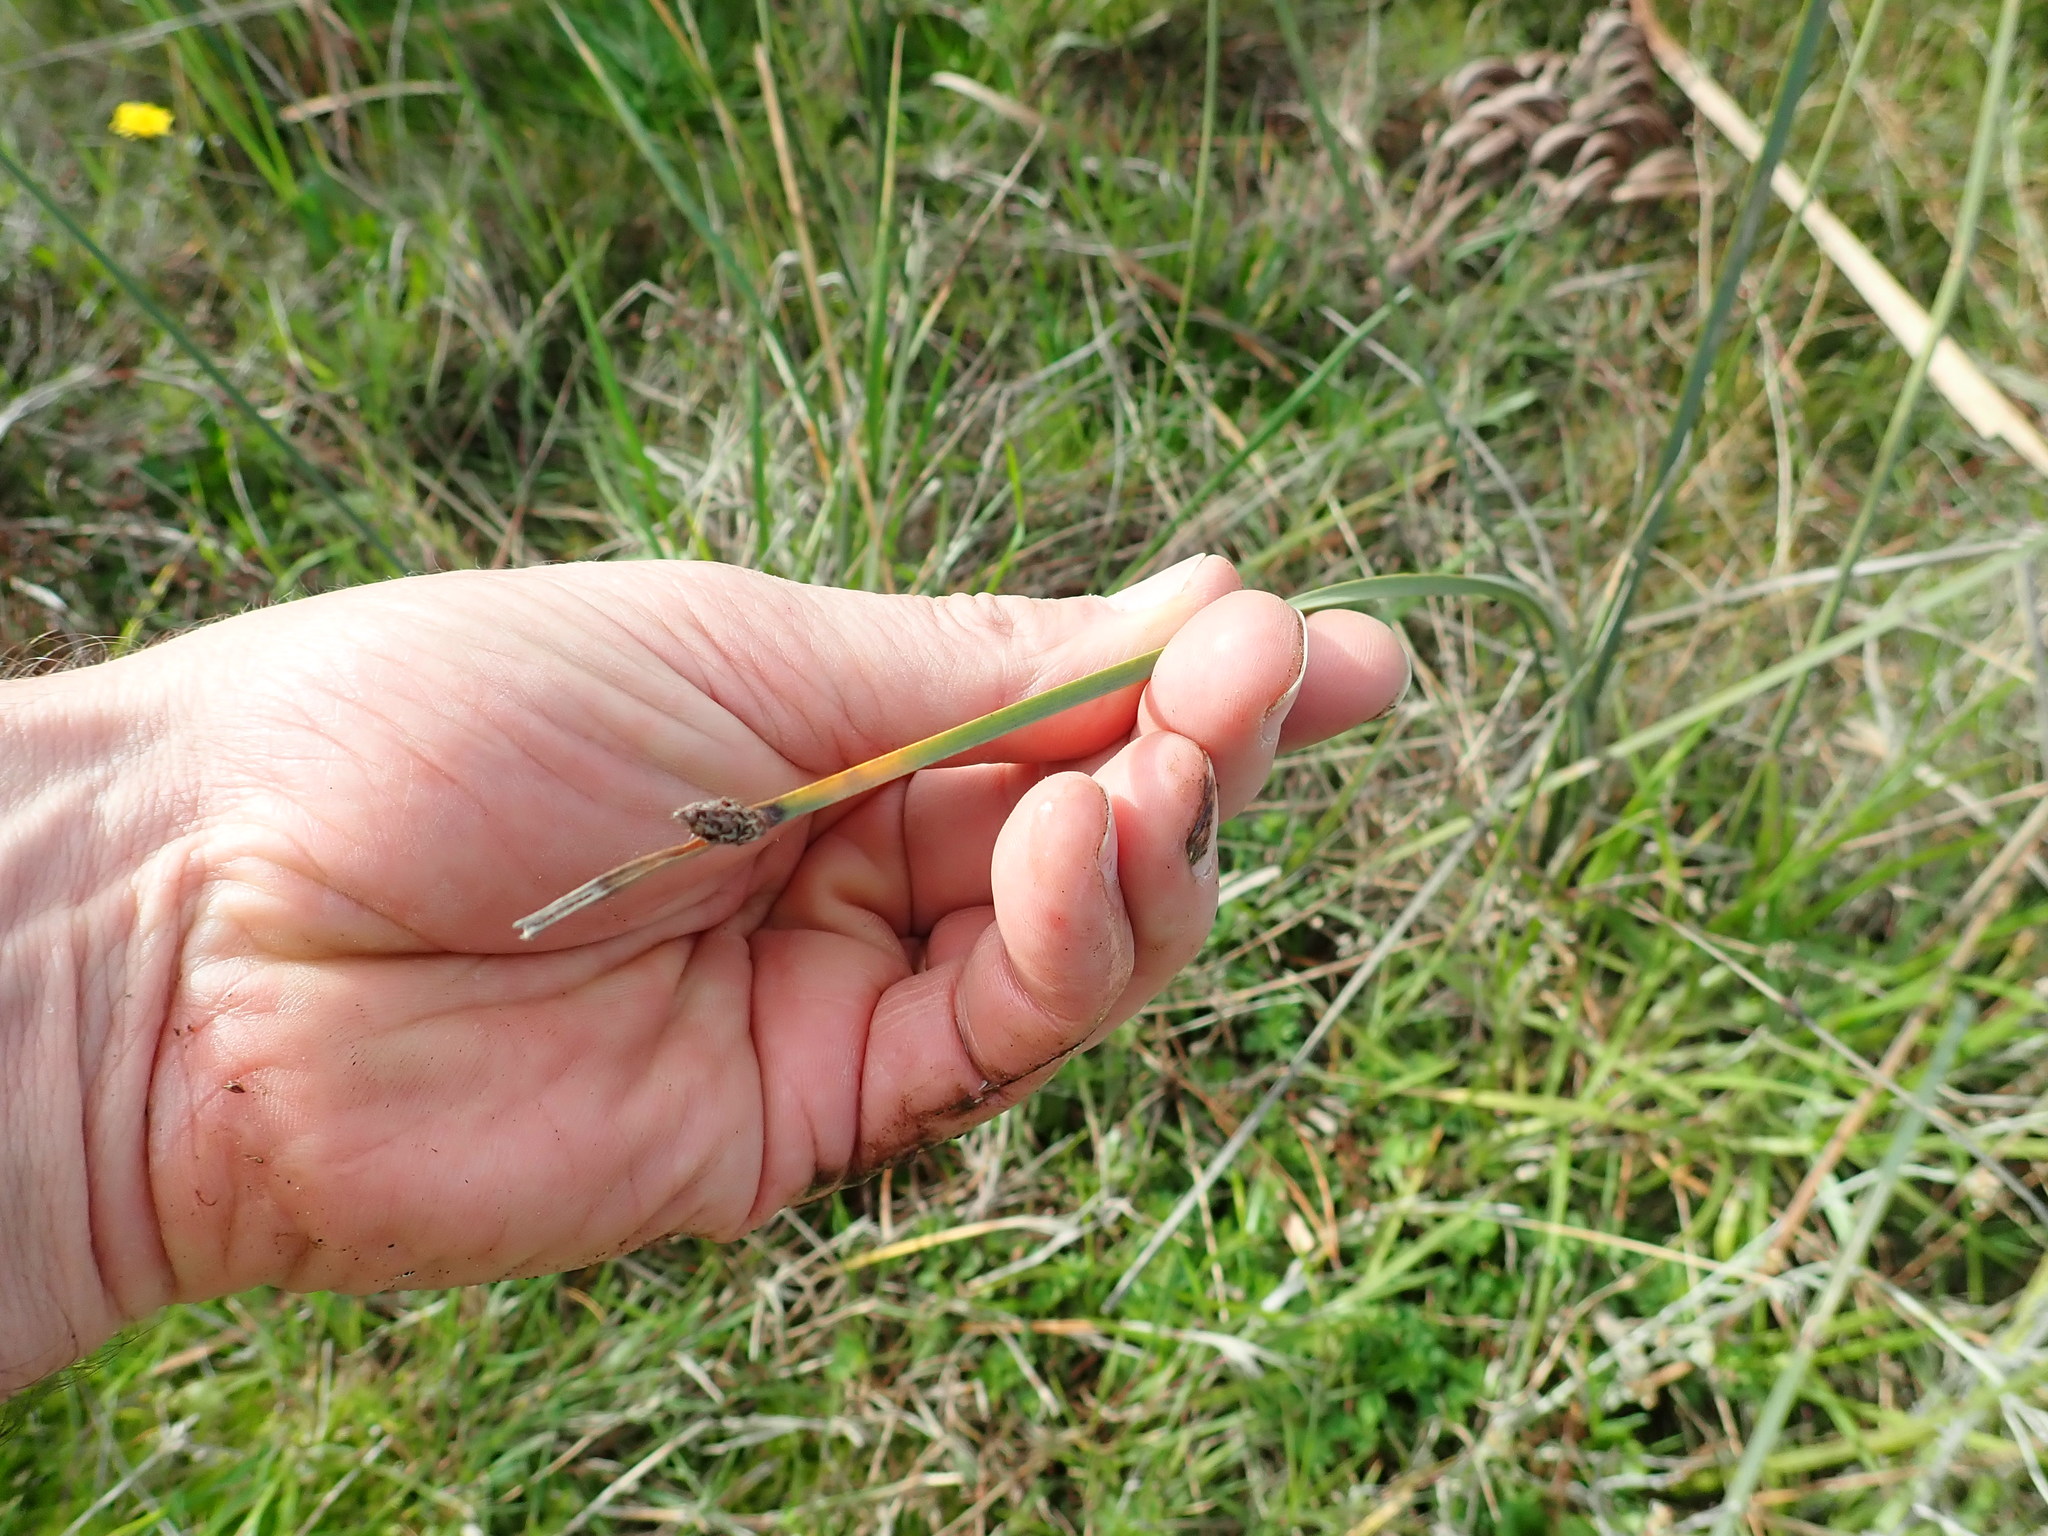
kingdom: Plantae
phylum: Tracheophyta
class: Liliopsida
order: Poales
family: Cyperaceae
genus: Schoenoplectus
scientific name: Schoenoplectus pungens
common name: Sharp club-rush
